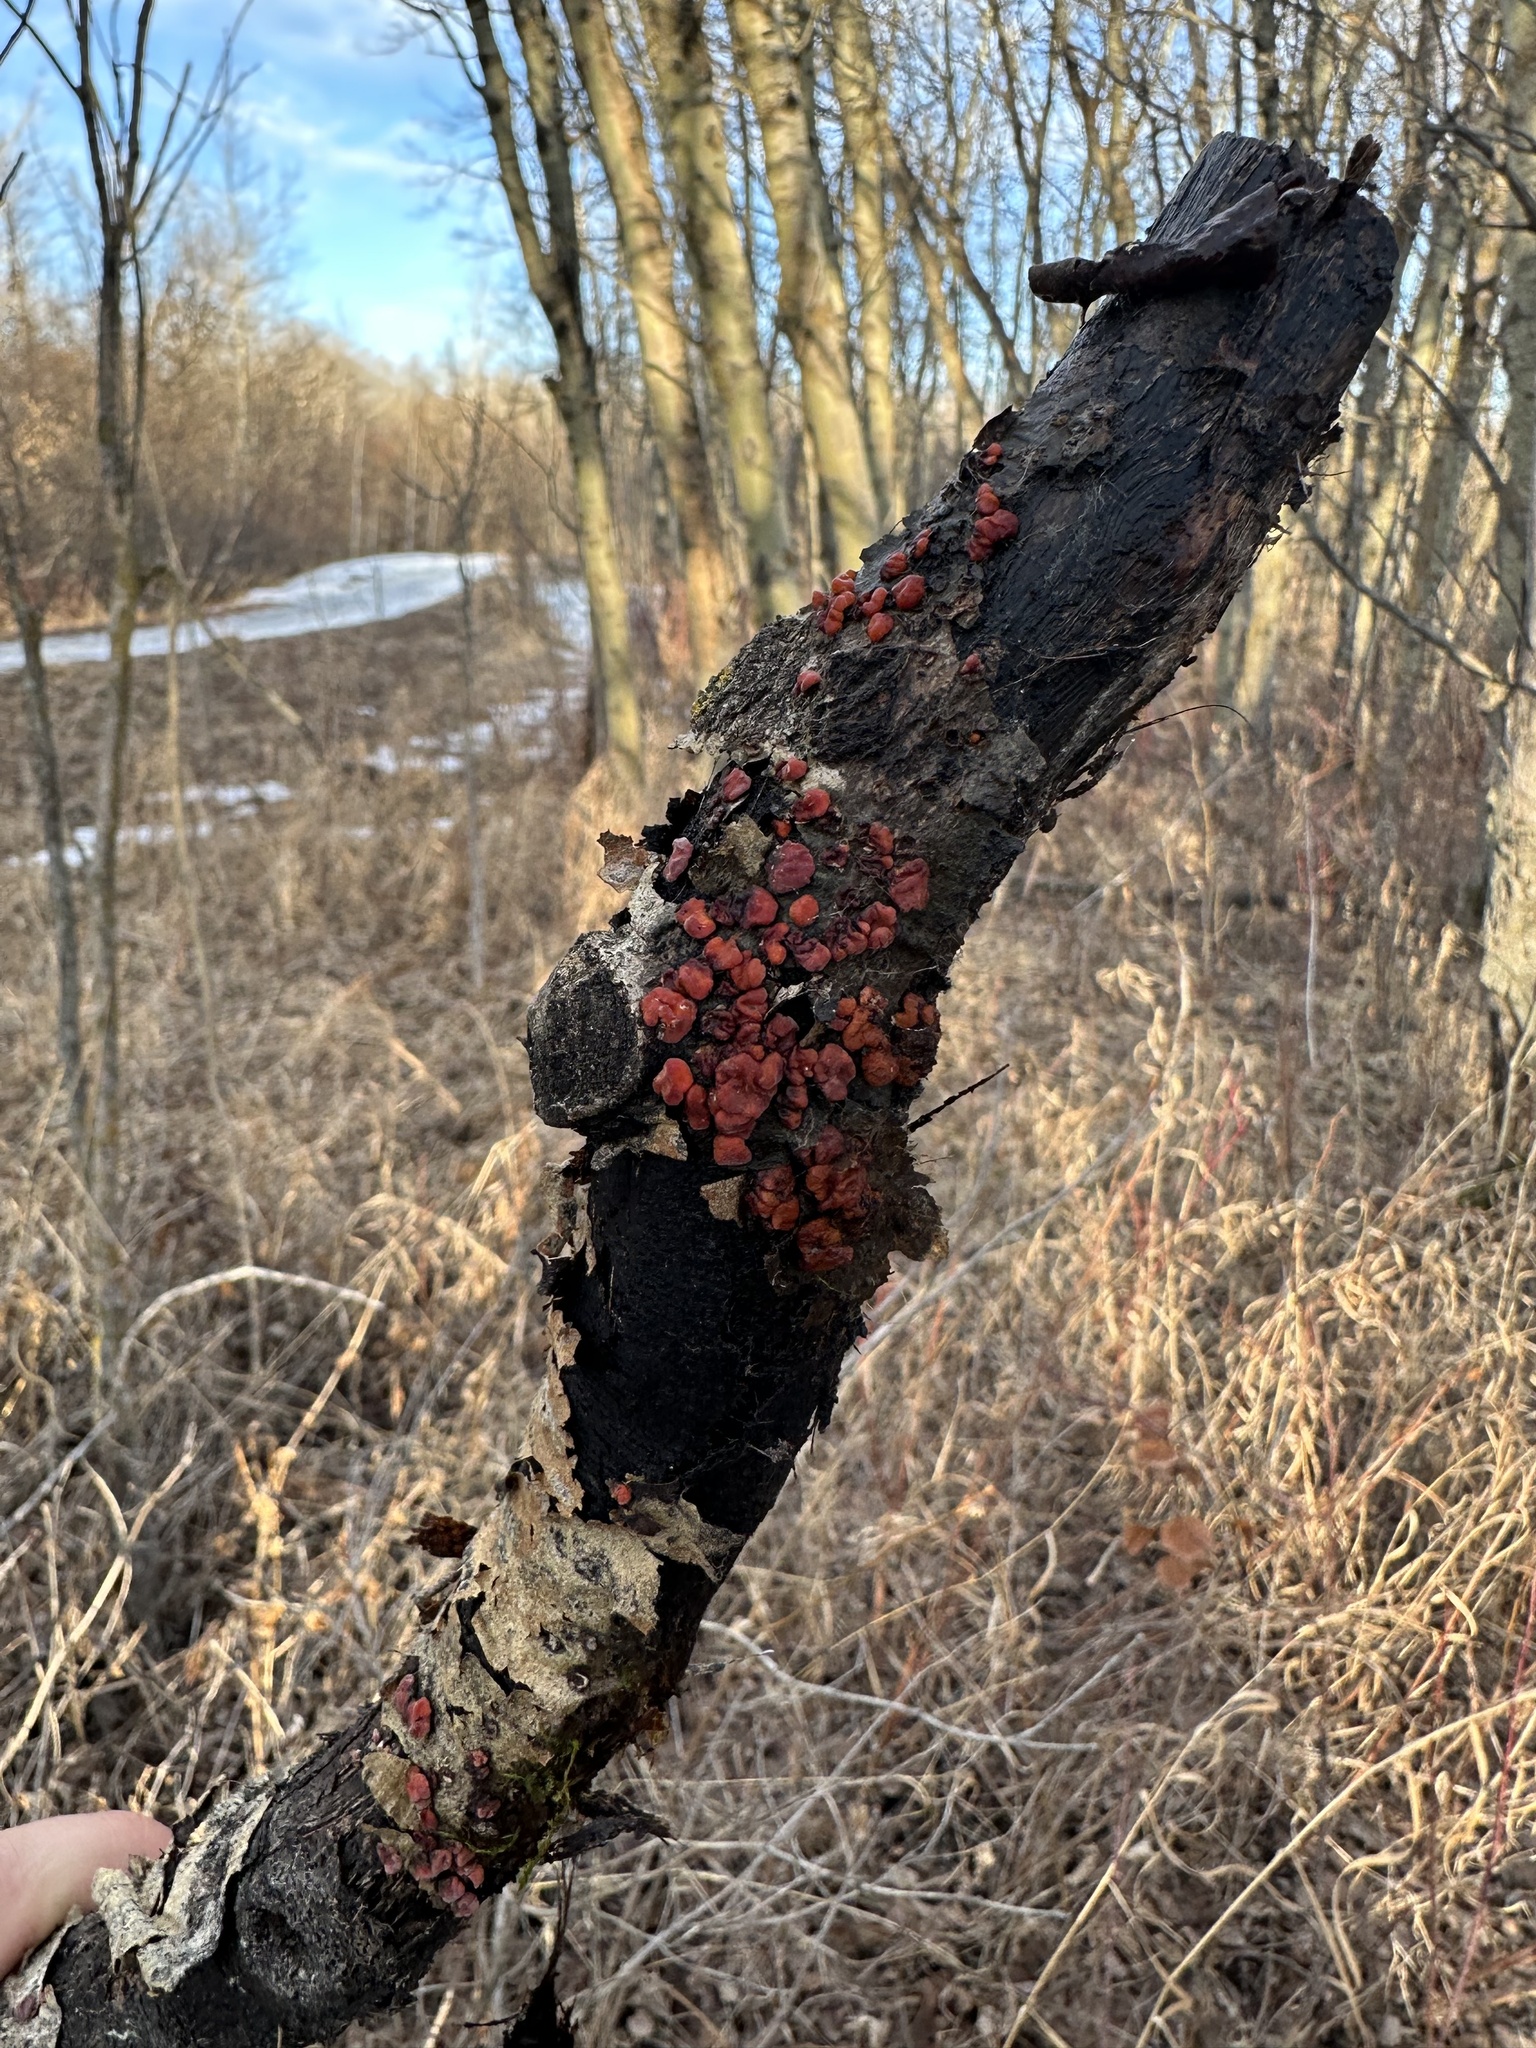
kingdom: Fungi
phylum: Basidiomycota
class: Agaricomycetes
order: Russulales
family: Peniophoraceae
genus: Peniophora
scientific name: Peniophora rufa
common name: Red tree brain fungus
